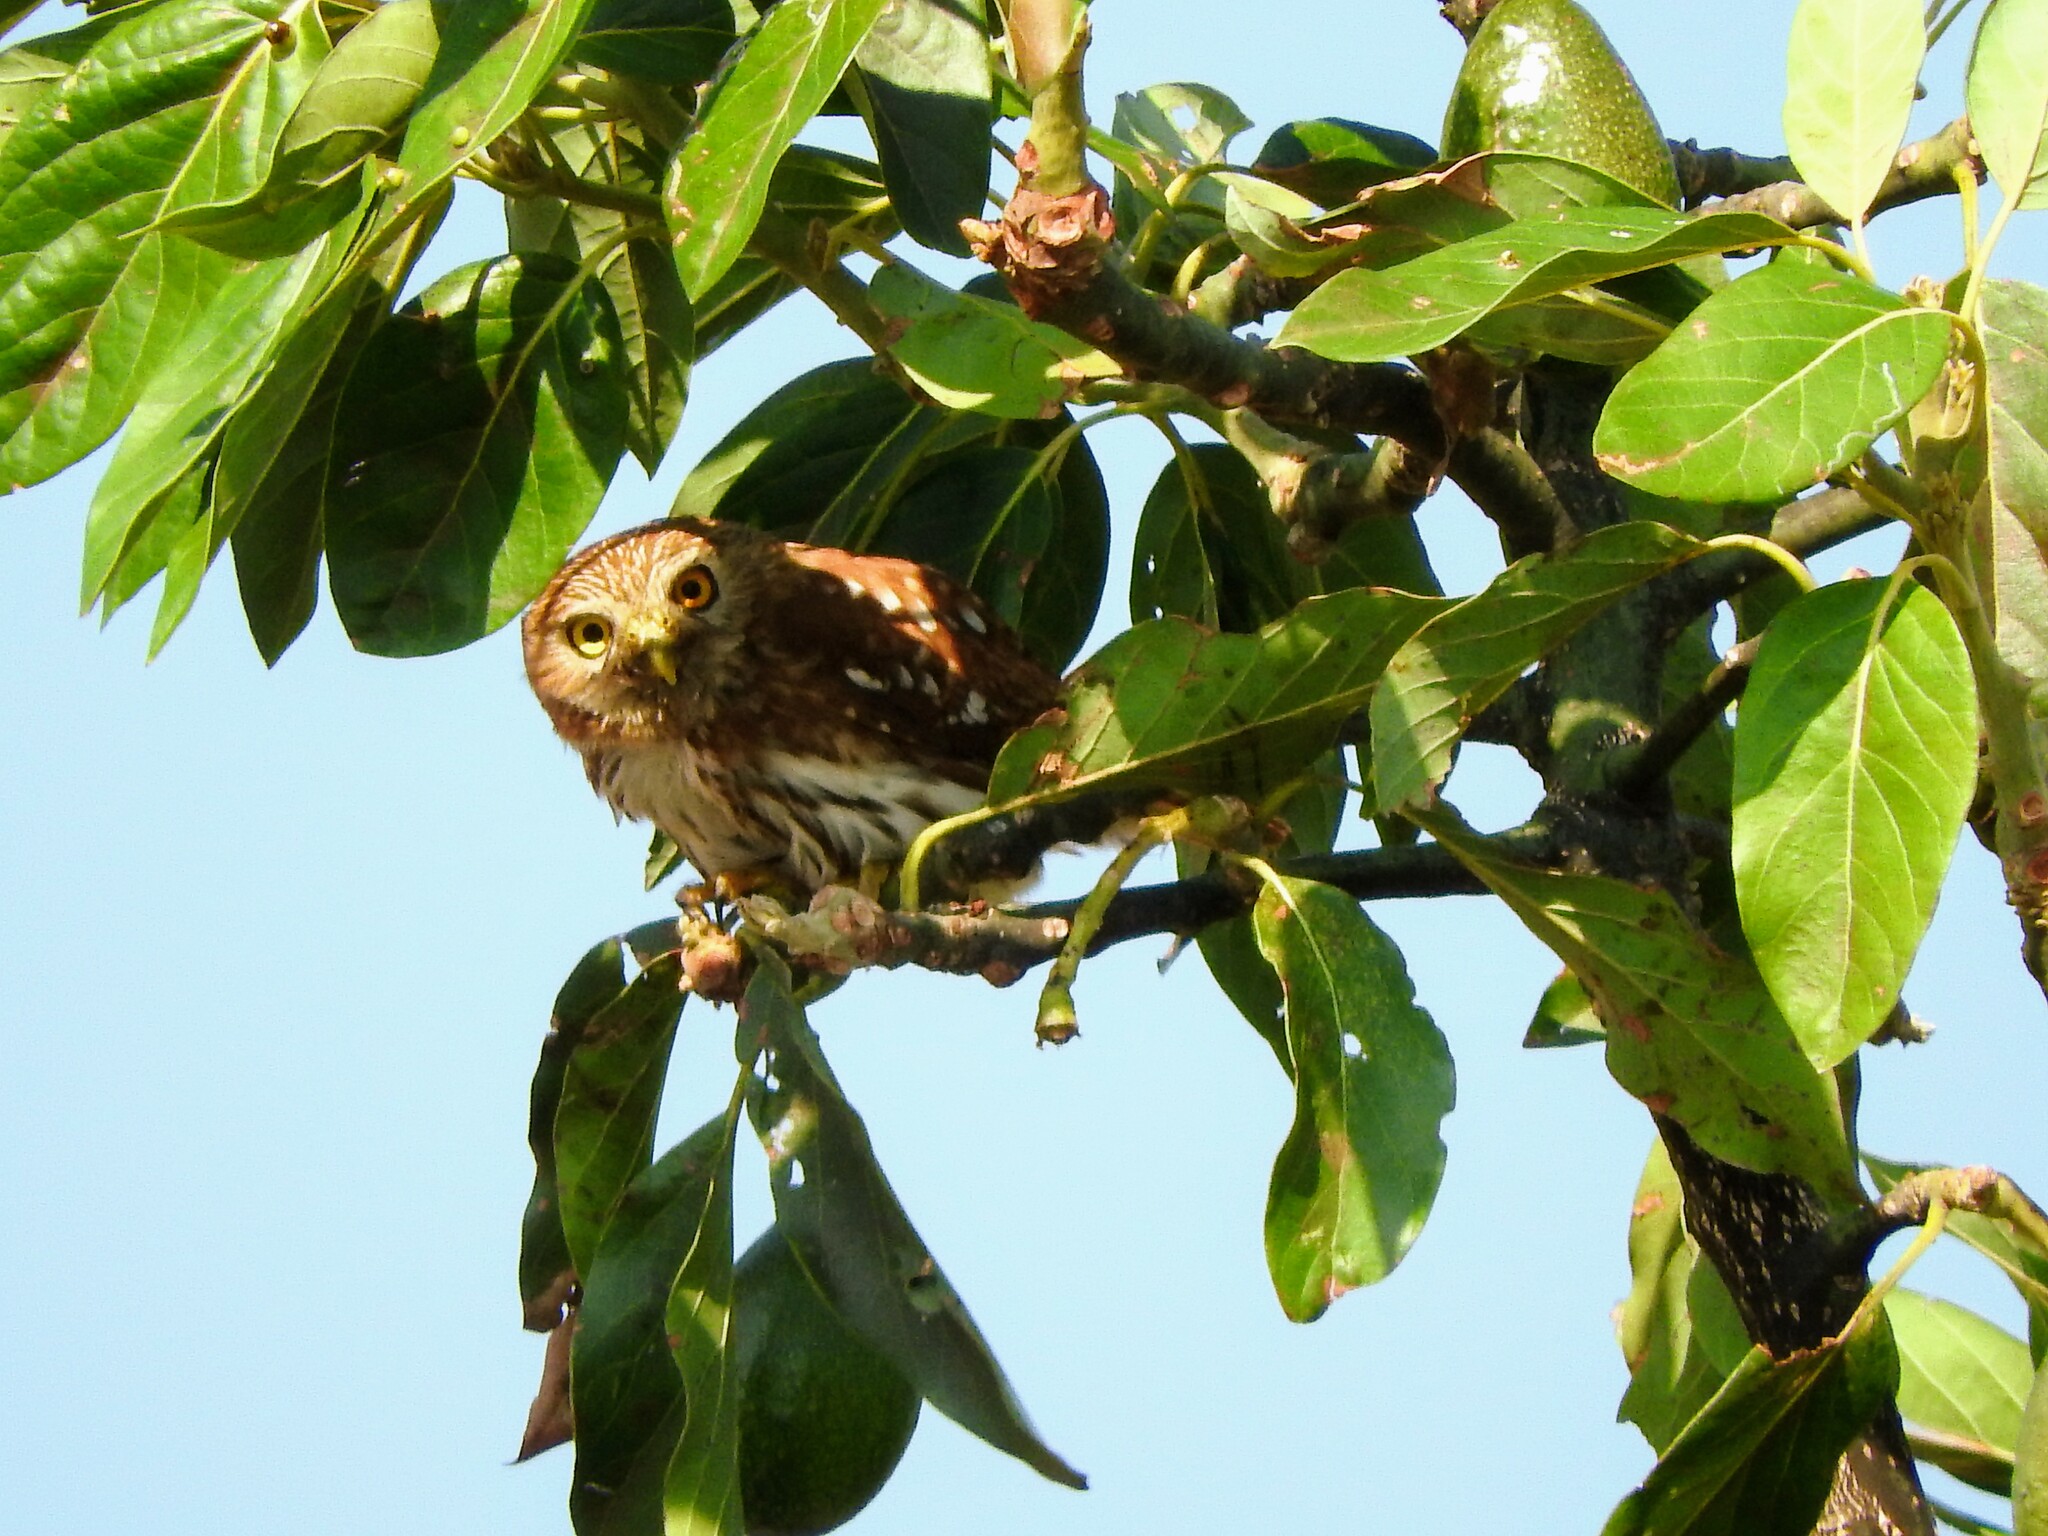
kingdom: Animalia
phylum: Chordata
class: Aves
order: Strigiformes
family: Strigidae
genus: Glaucidium
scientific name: Glaucidium brasilianum
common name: Ferruginous pygmy-owl
